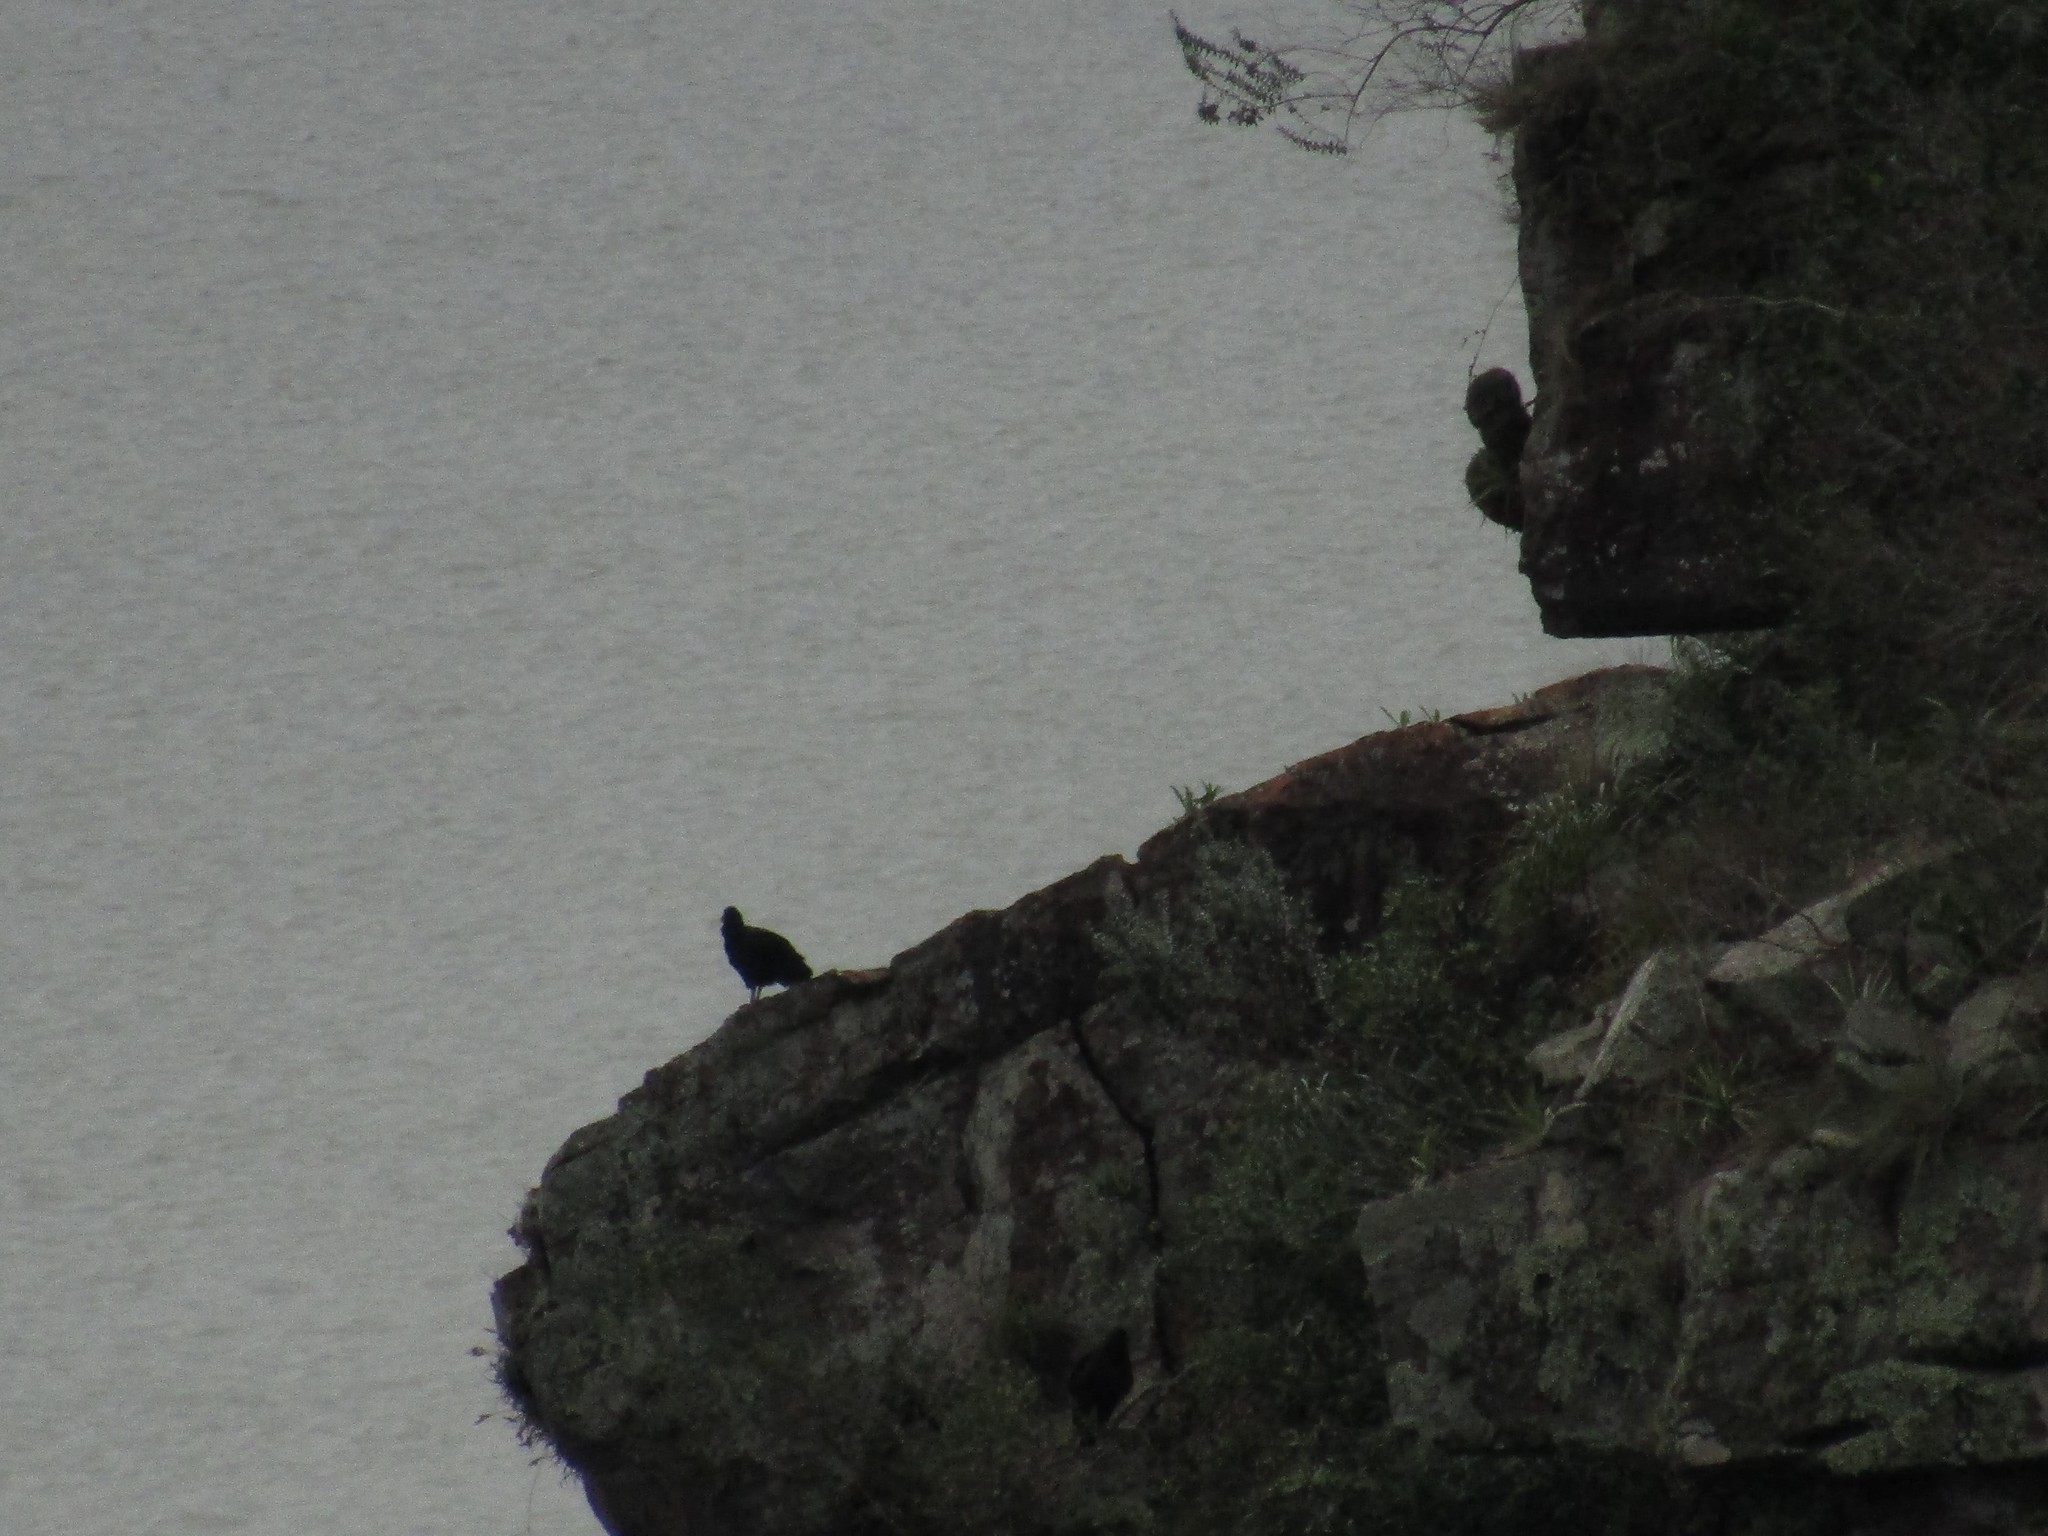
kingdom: Animalia
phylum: Chordata
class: Aves
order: Accipitriformes
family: Cathartidae
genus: Coragyps
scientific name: Coragyps atratus
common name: Black vulture
